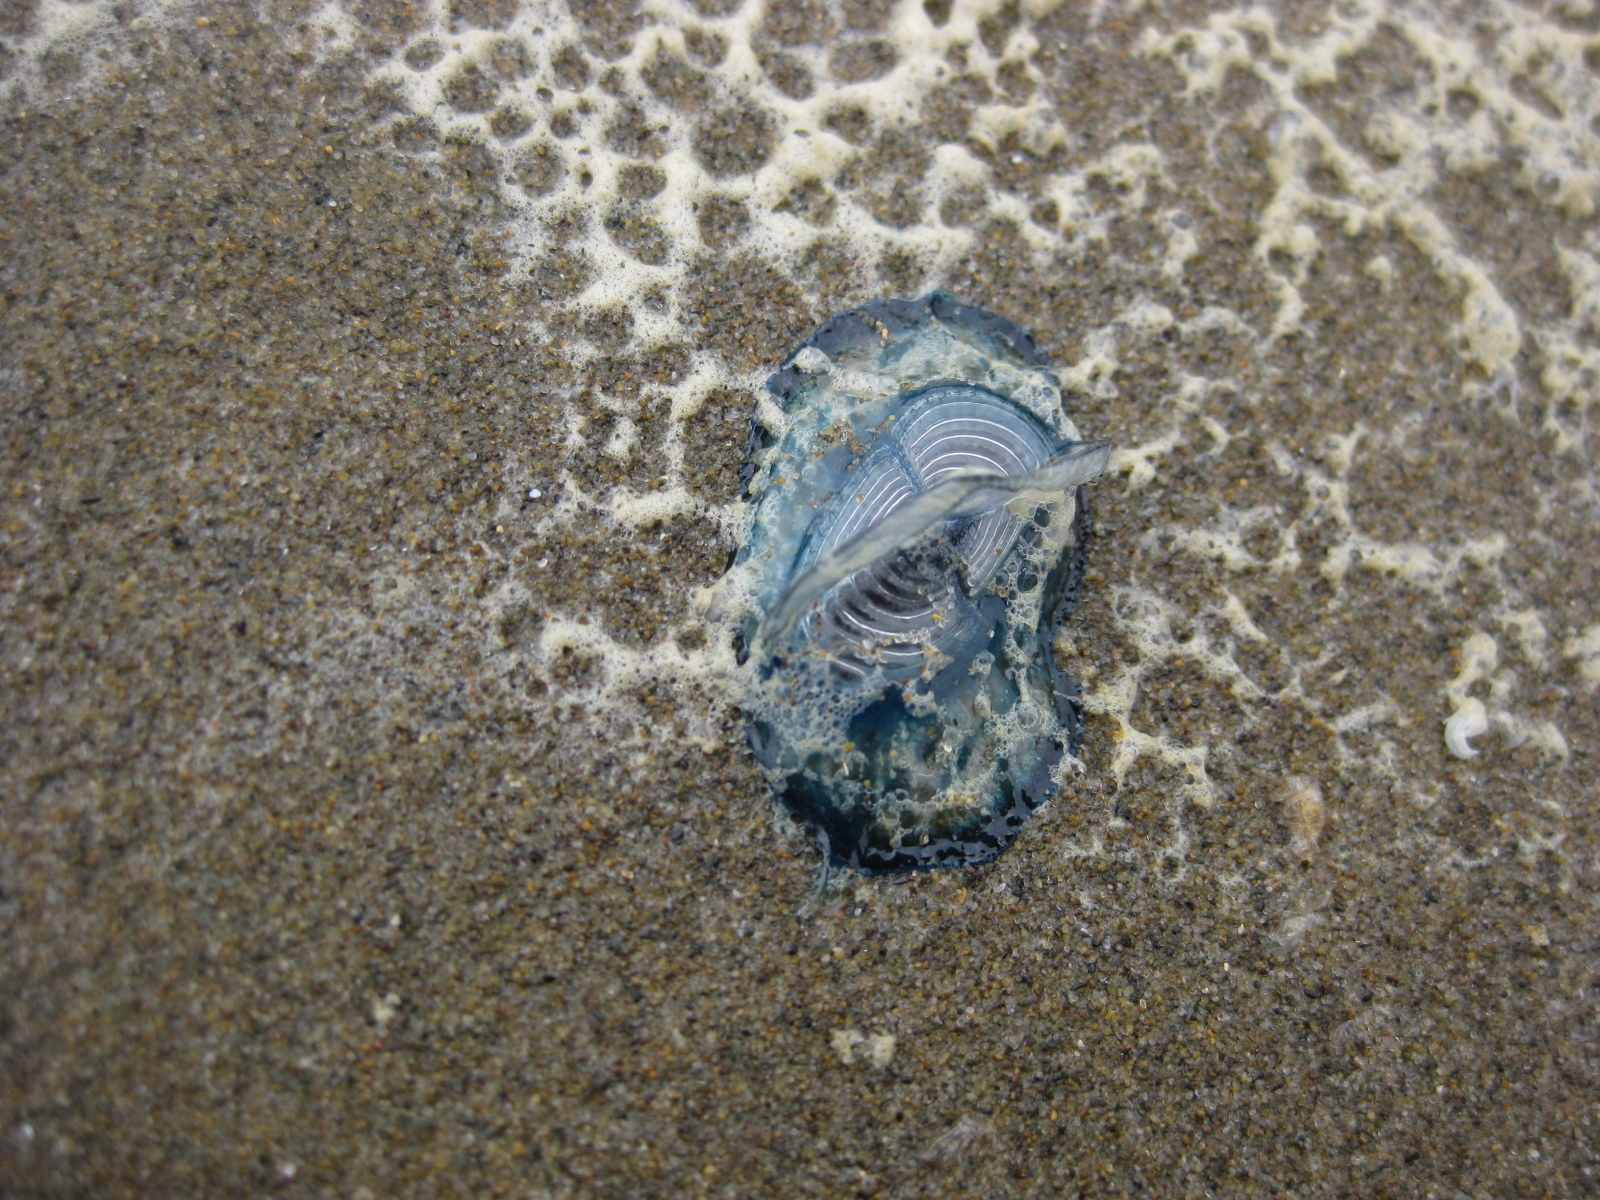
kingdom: Animalia
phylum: Cnidaria
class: Hydrozoa
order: Anthoathecata
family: Porpitidae
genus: Velella
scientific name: Velella velella
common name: By-the-wind-sailor
